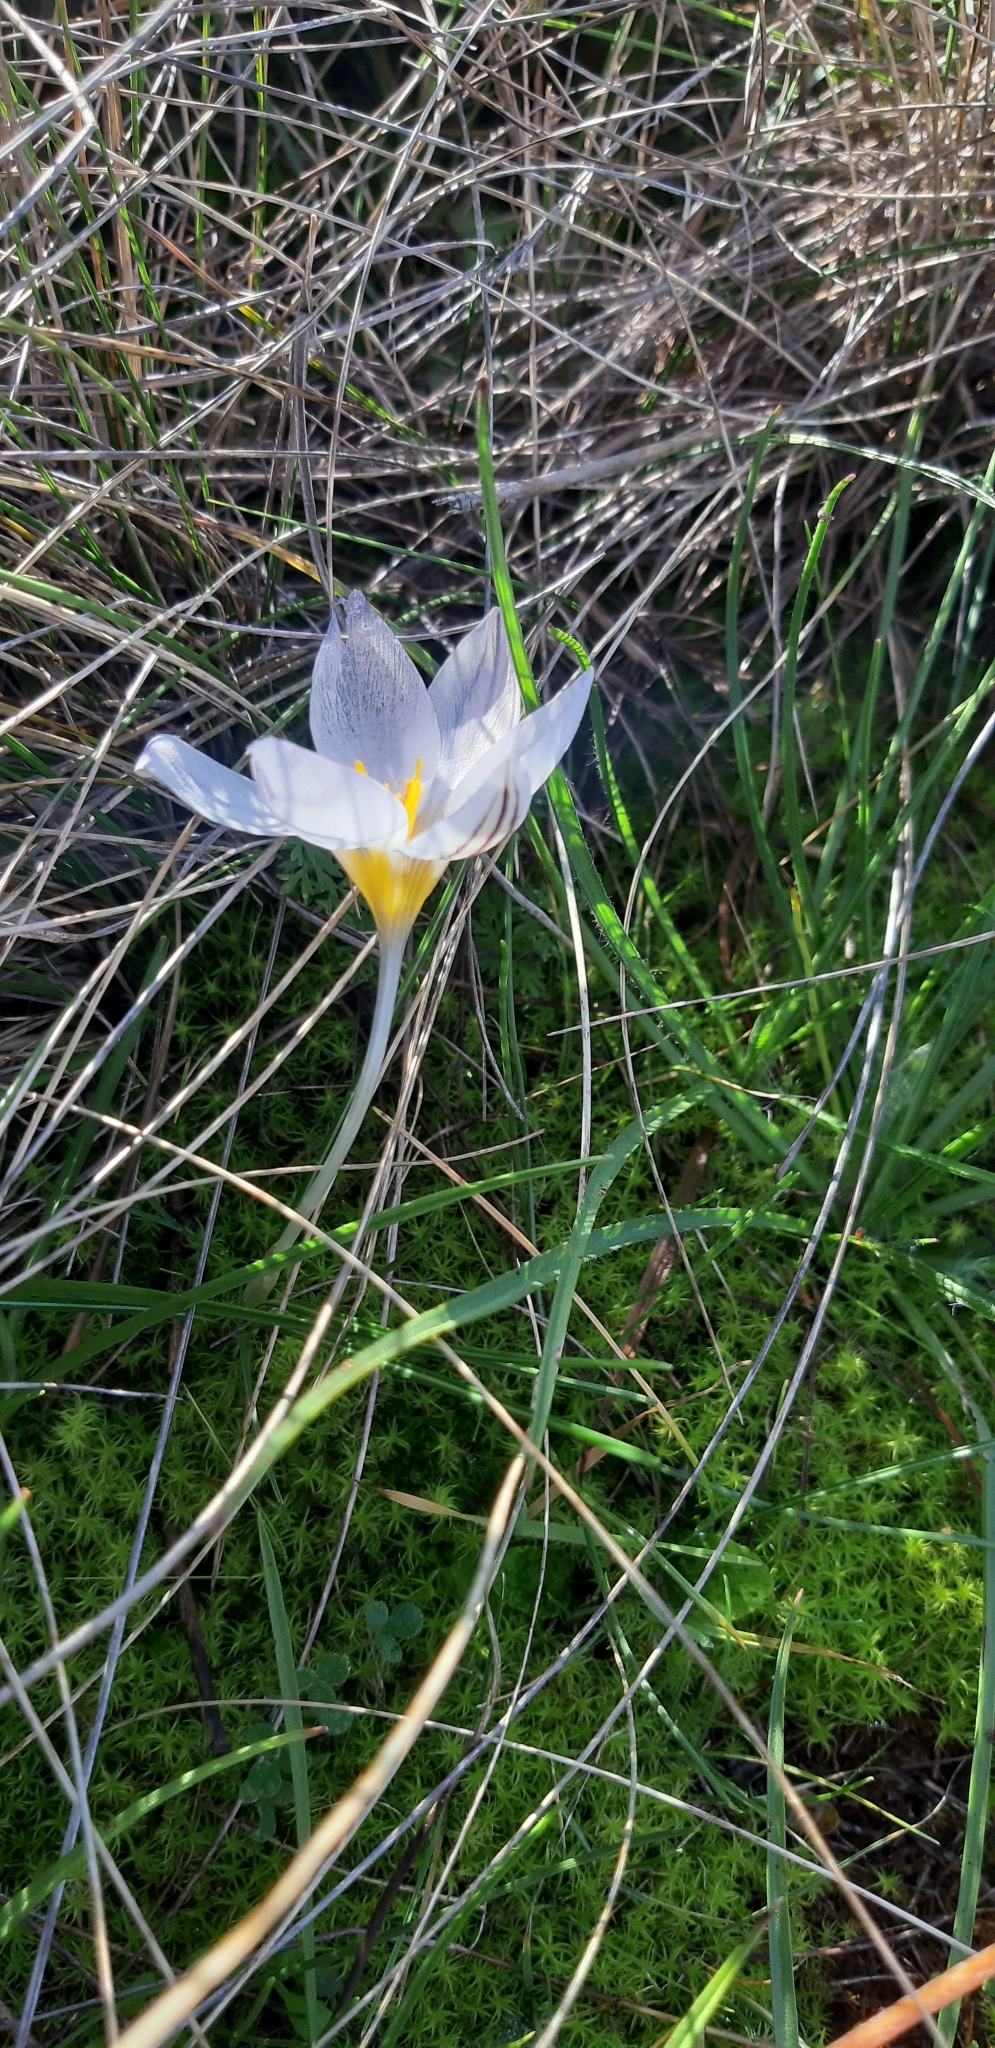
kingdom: Plantae
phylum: Tracheophyta
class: Liliopsida
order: Asparagales
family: Iridaceae
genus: Crocus
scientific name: Crocus biflorus
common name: Silvery crocus
